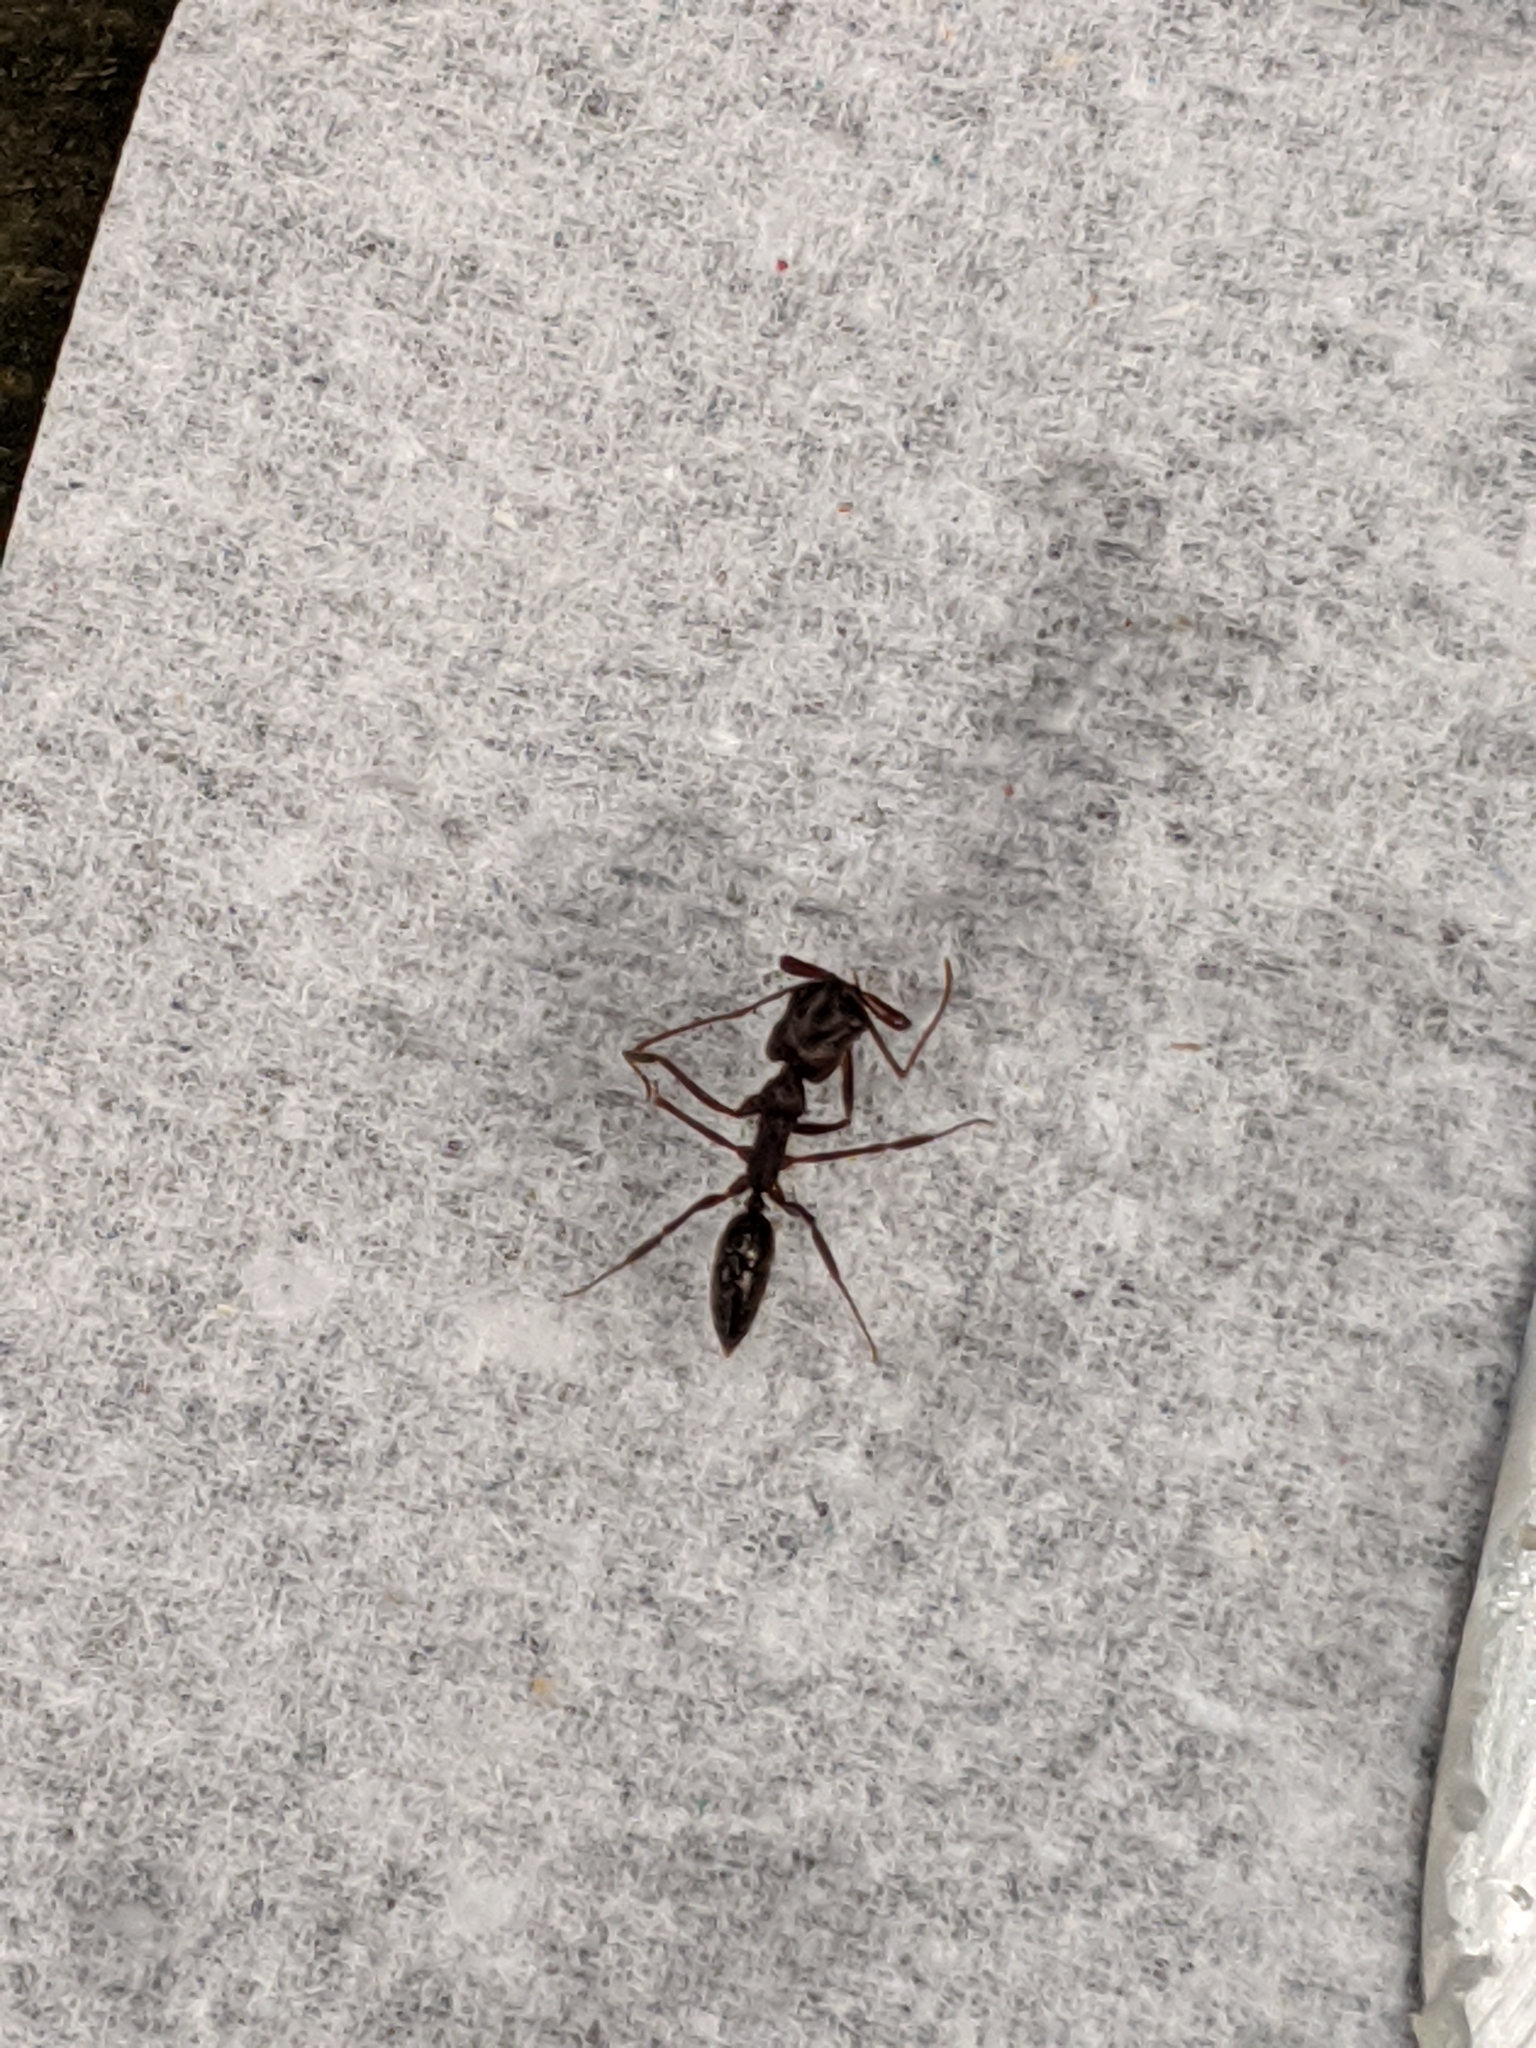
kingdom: Animalia
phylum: Arthropoda
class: Insecta
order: Hymenoptera
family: Formicidae
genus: Odontomachus
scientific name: Odontomachus brunneus
